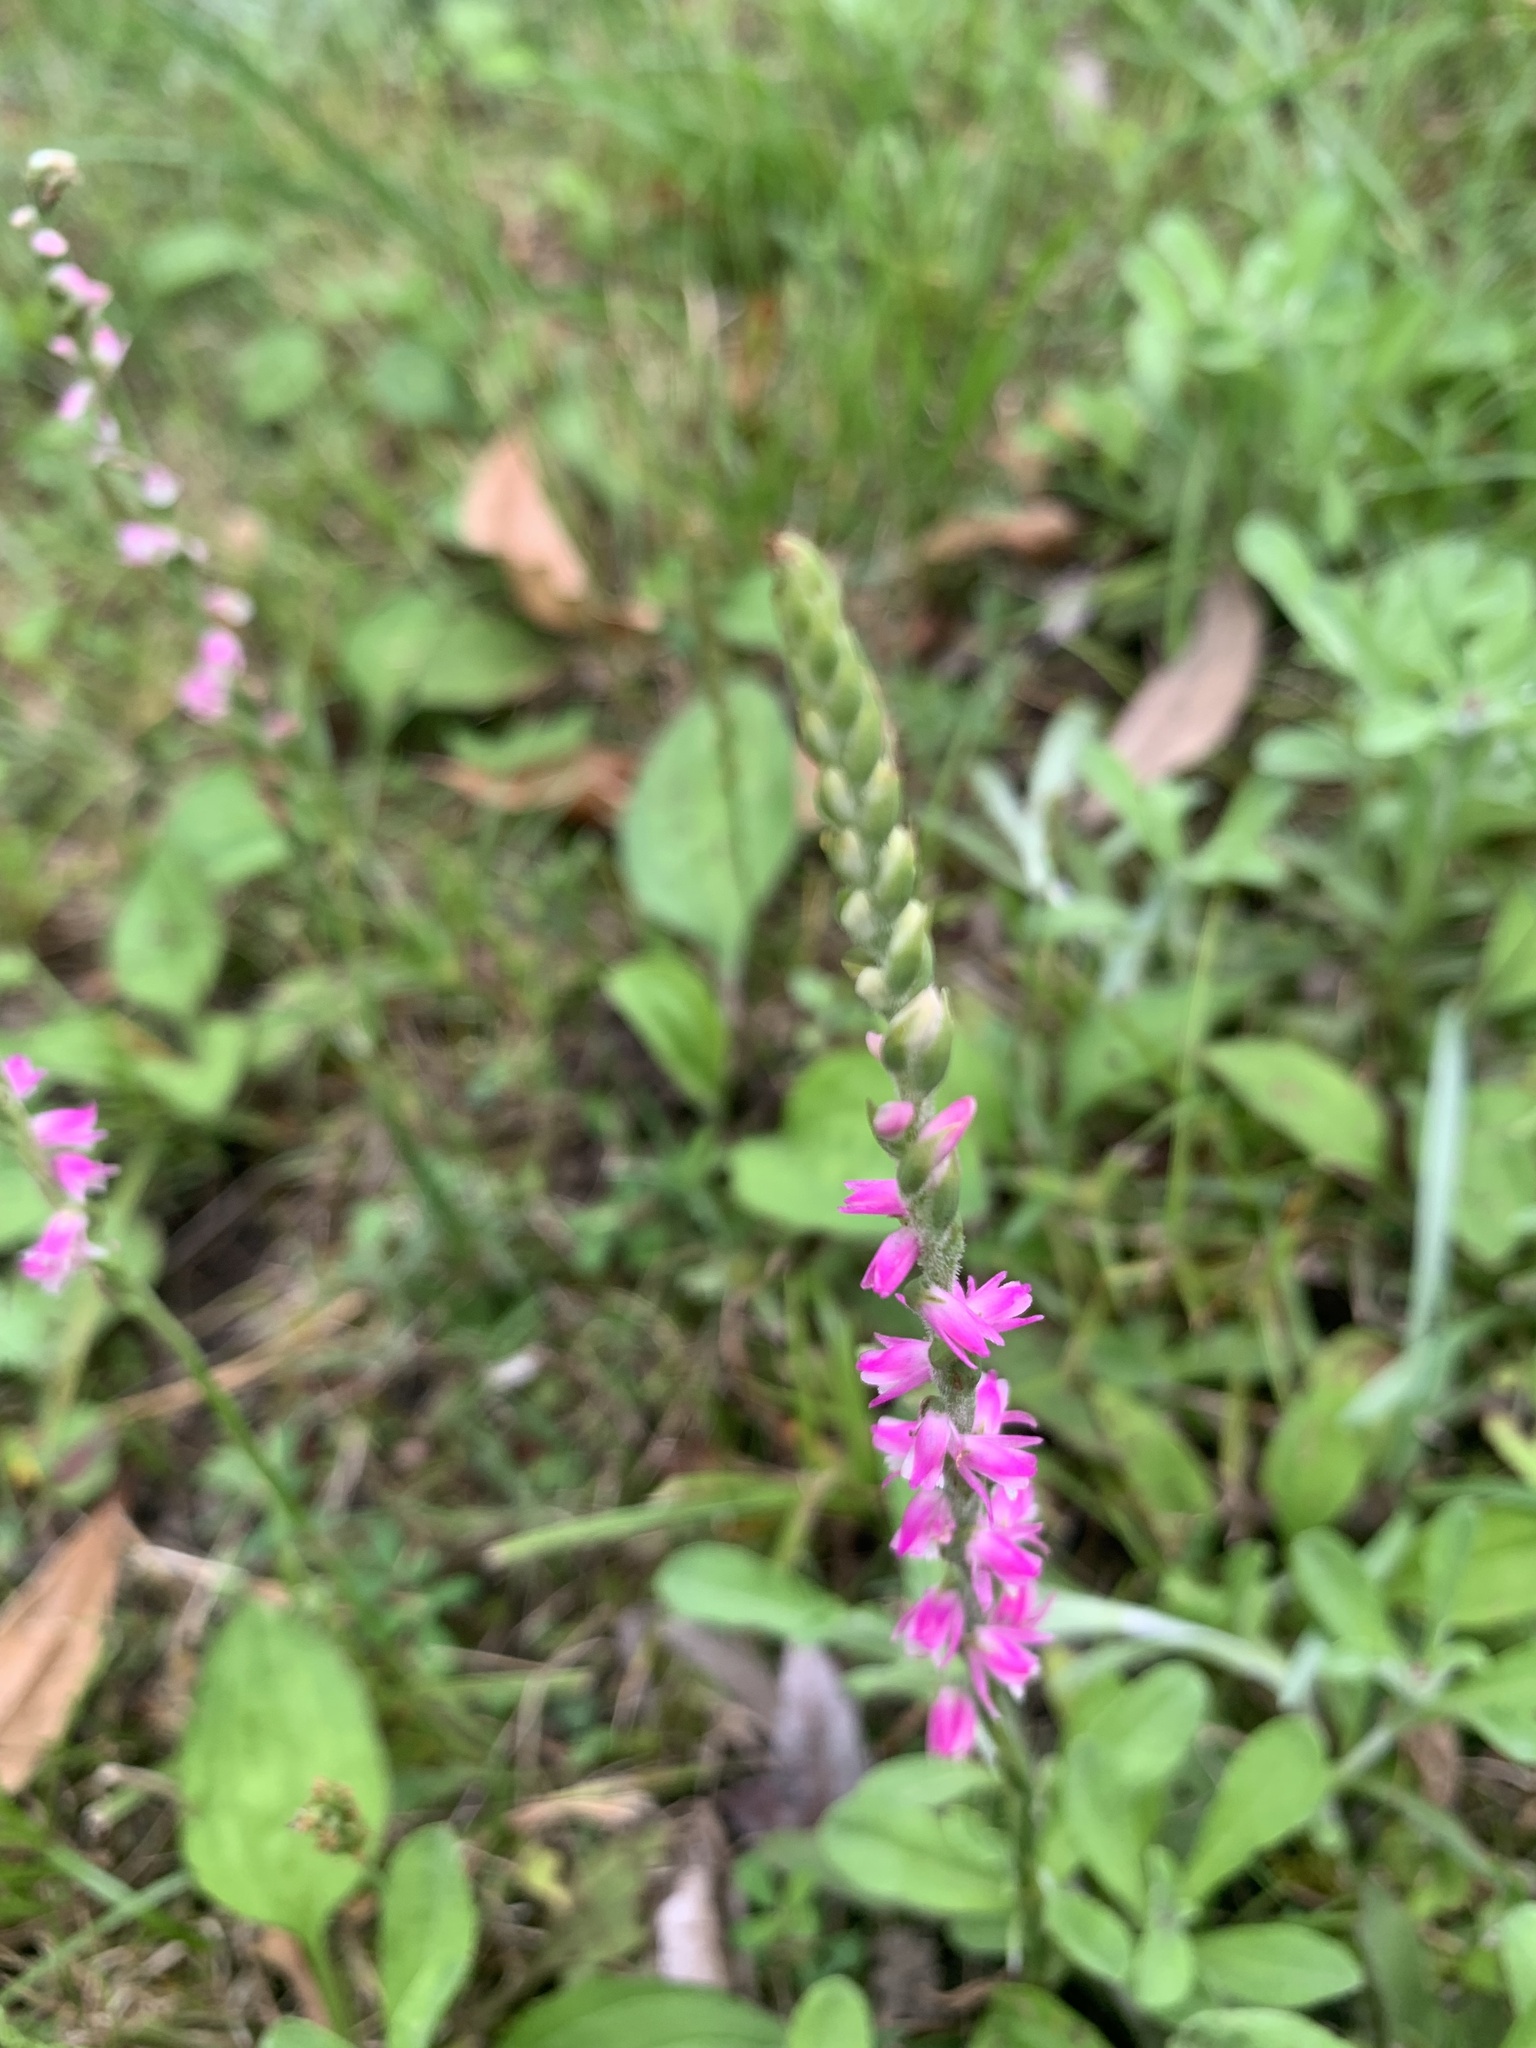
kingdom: Plantae
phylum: Tracheophyta
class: Liliopsida
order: Asparagales
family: Orchidaceae
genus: Spiranthes
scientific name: Spiranthes australis
